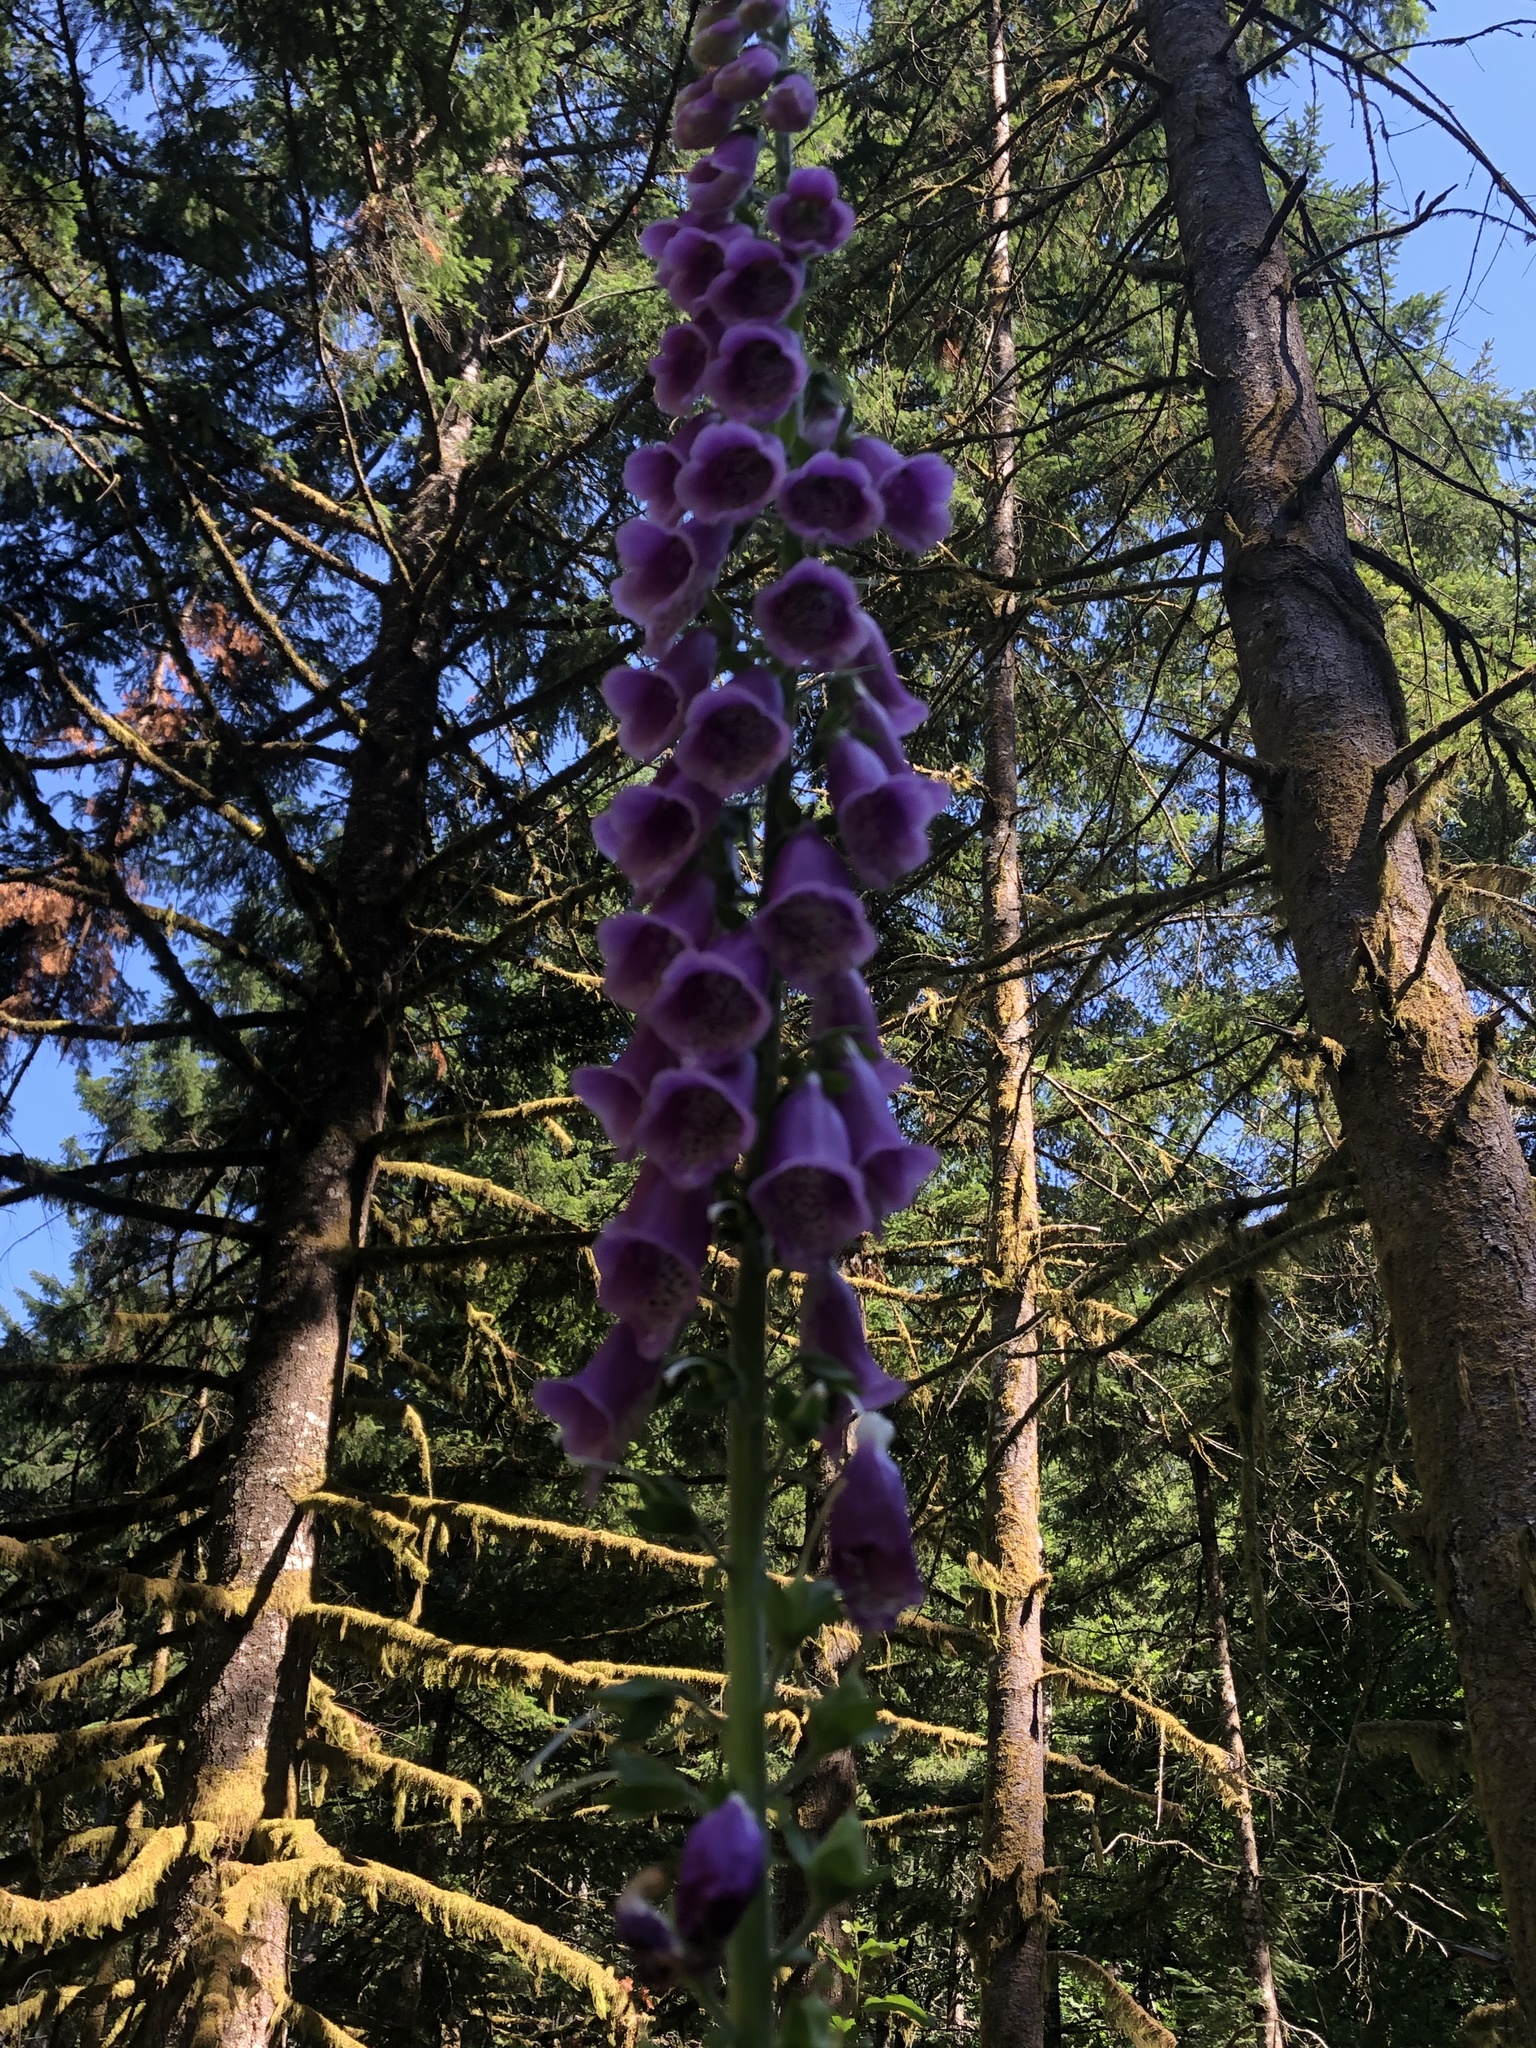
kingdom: Plantae
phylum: Tracheophyta
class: Magnoliopsida
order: Lamiales
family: Plantaginaceae
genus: Digitalis
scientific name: Digitalis purpurea
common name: Foxglove
